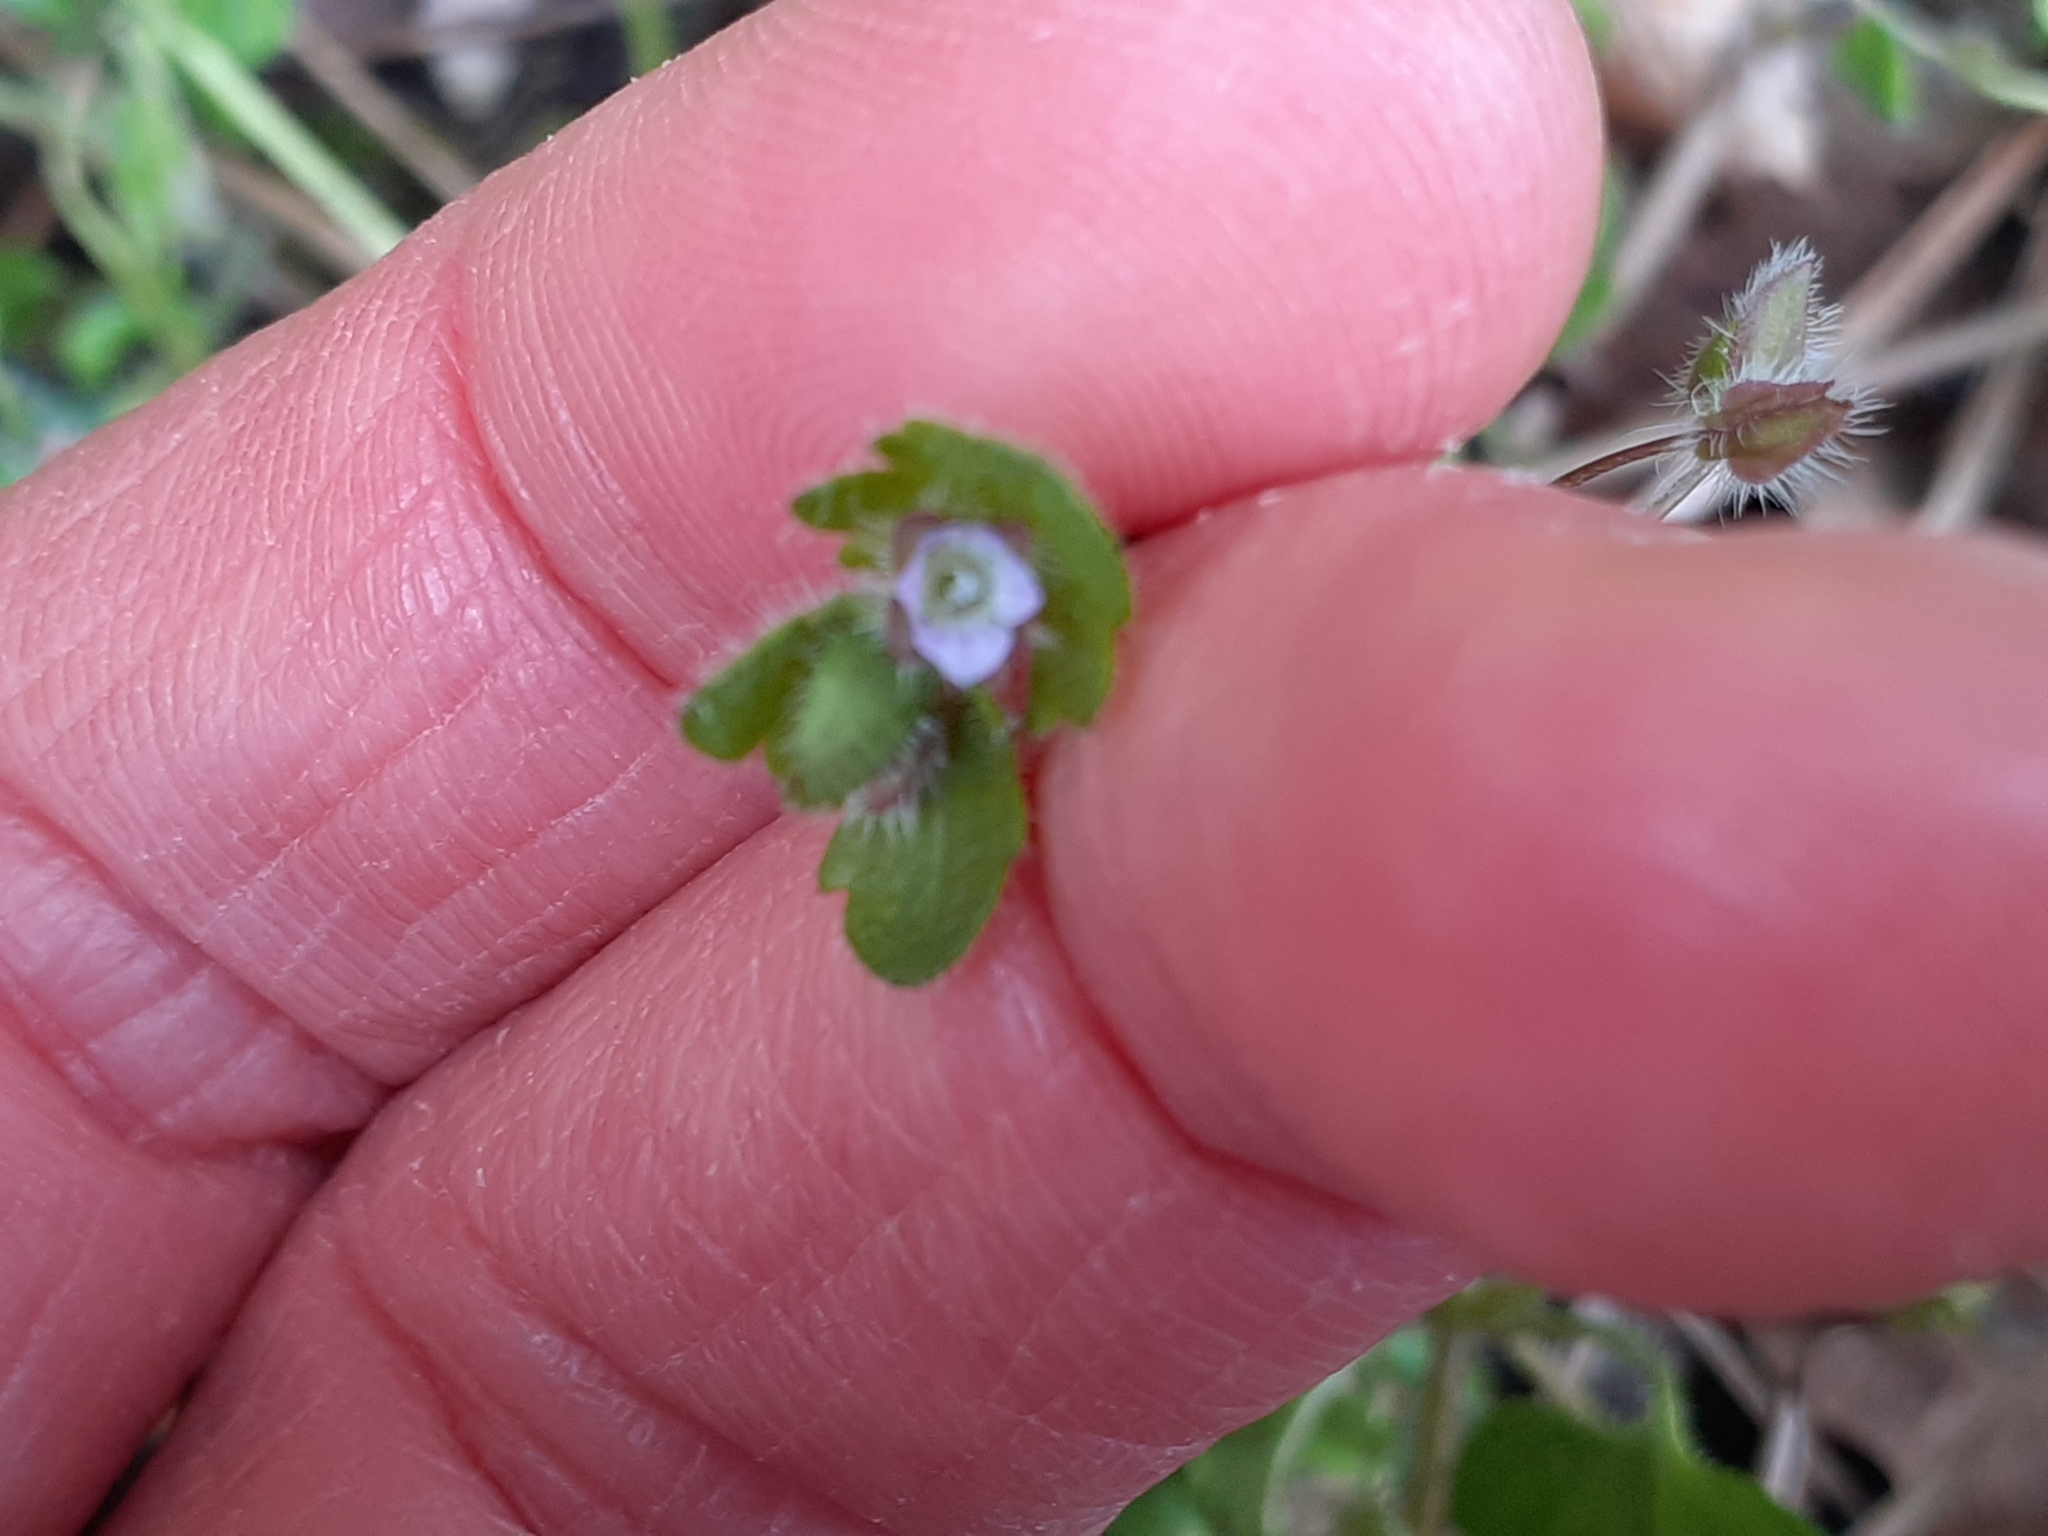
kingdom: Plantae
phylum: Tracheophyta
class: Magnoliopsida
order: Lamiales
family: Plantaginaceae
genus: Veronica
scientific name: Veronica hederifolia
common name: Ivy-leaved speedwell
